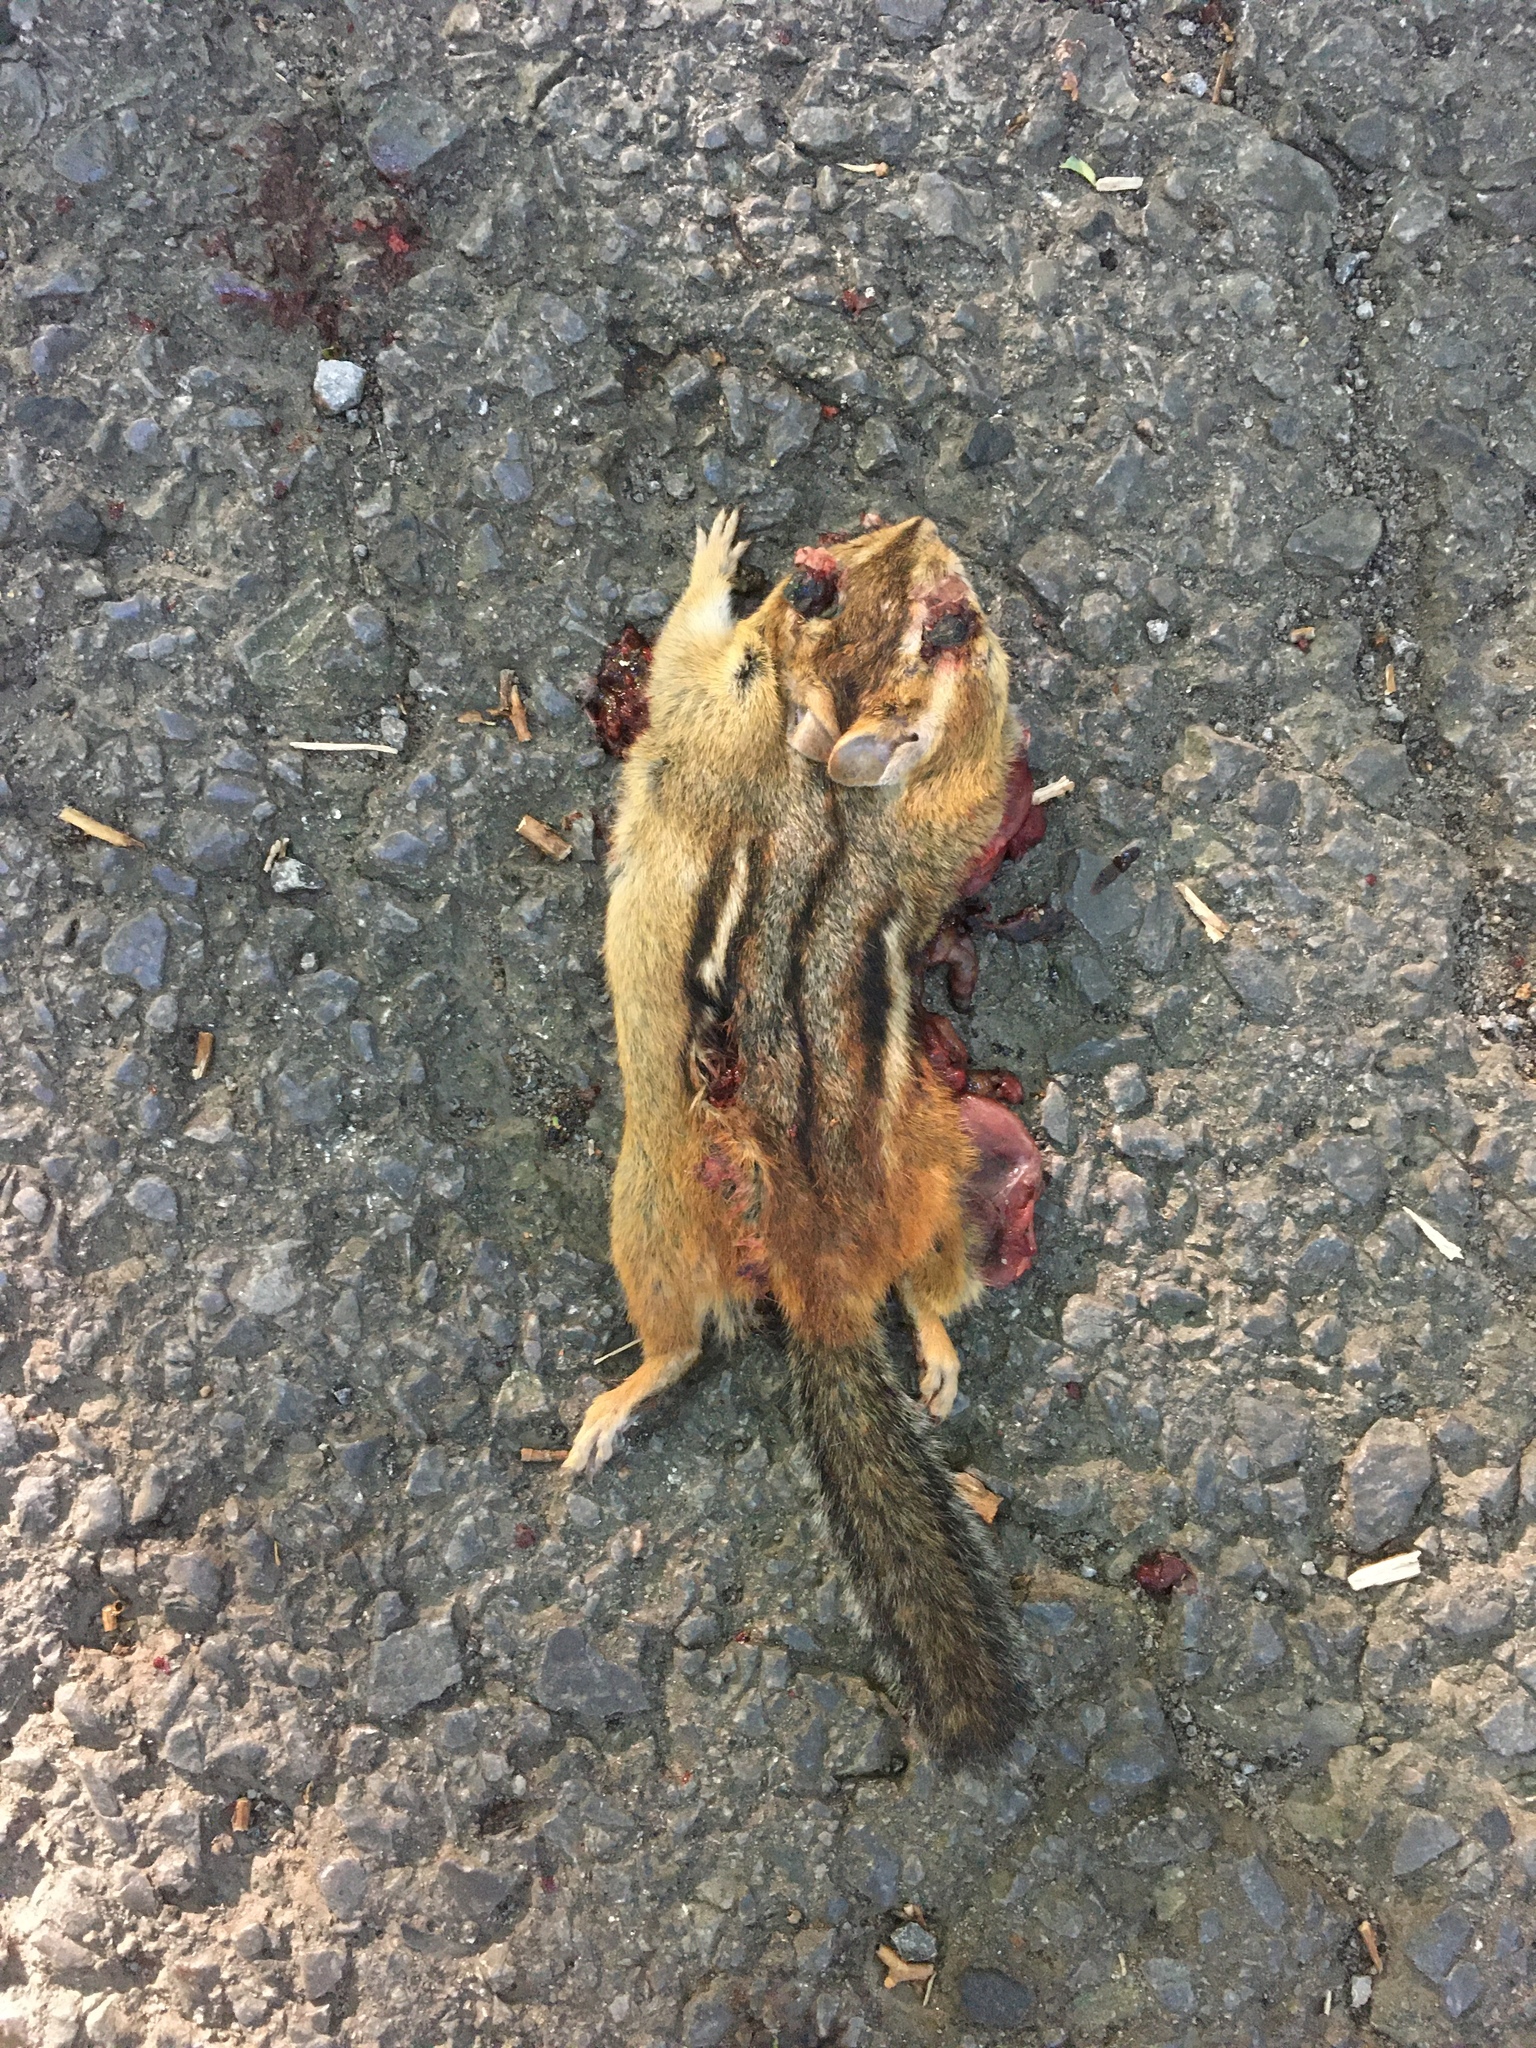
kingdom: Animalia
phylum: Chordata
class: Mammalia
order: Rodentia
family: Sciuridae
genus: Tamias
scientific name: Tamias striatus
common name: Eastern chipmunk
